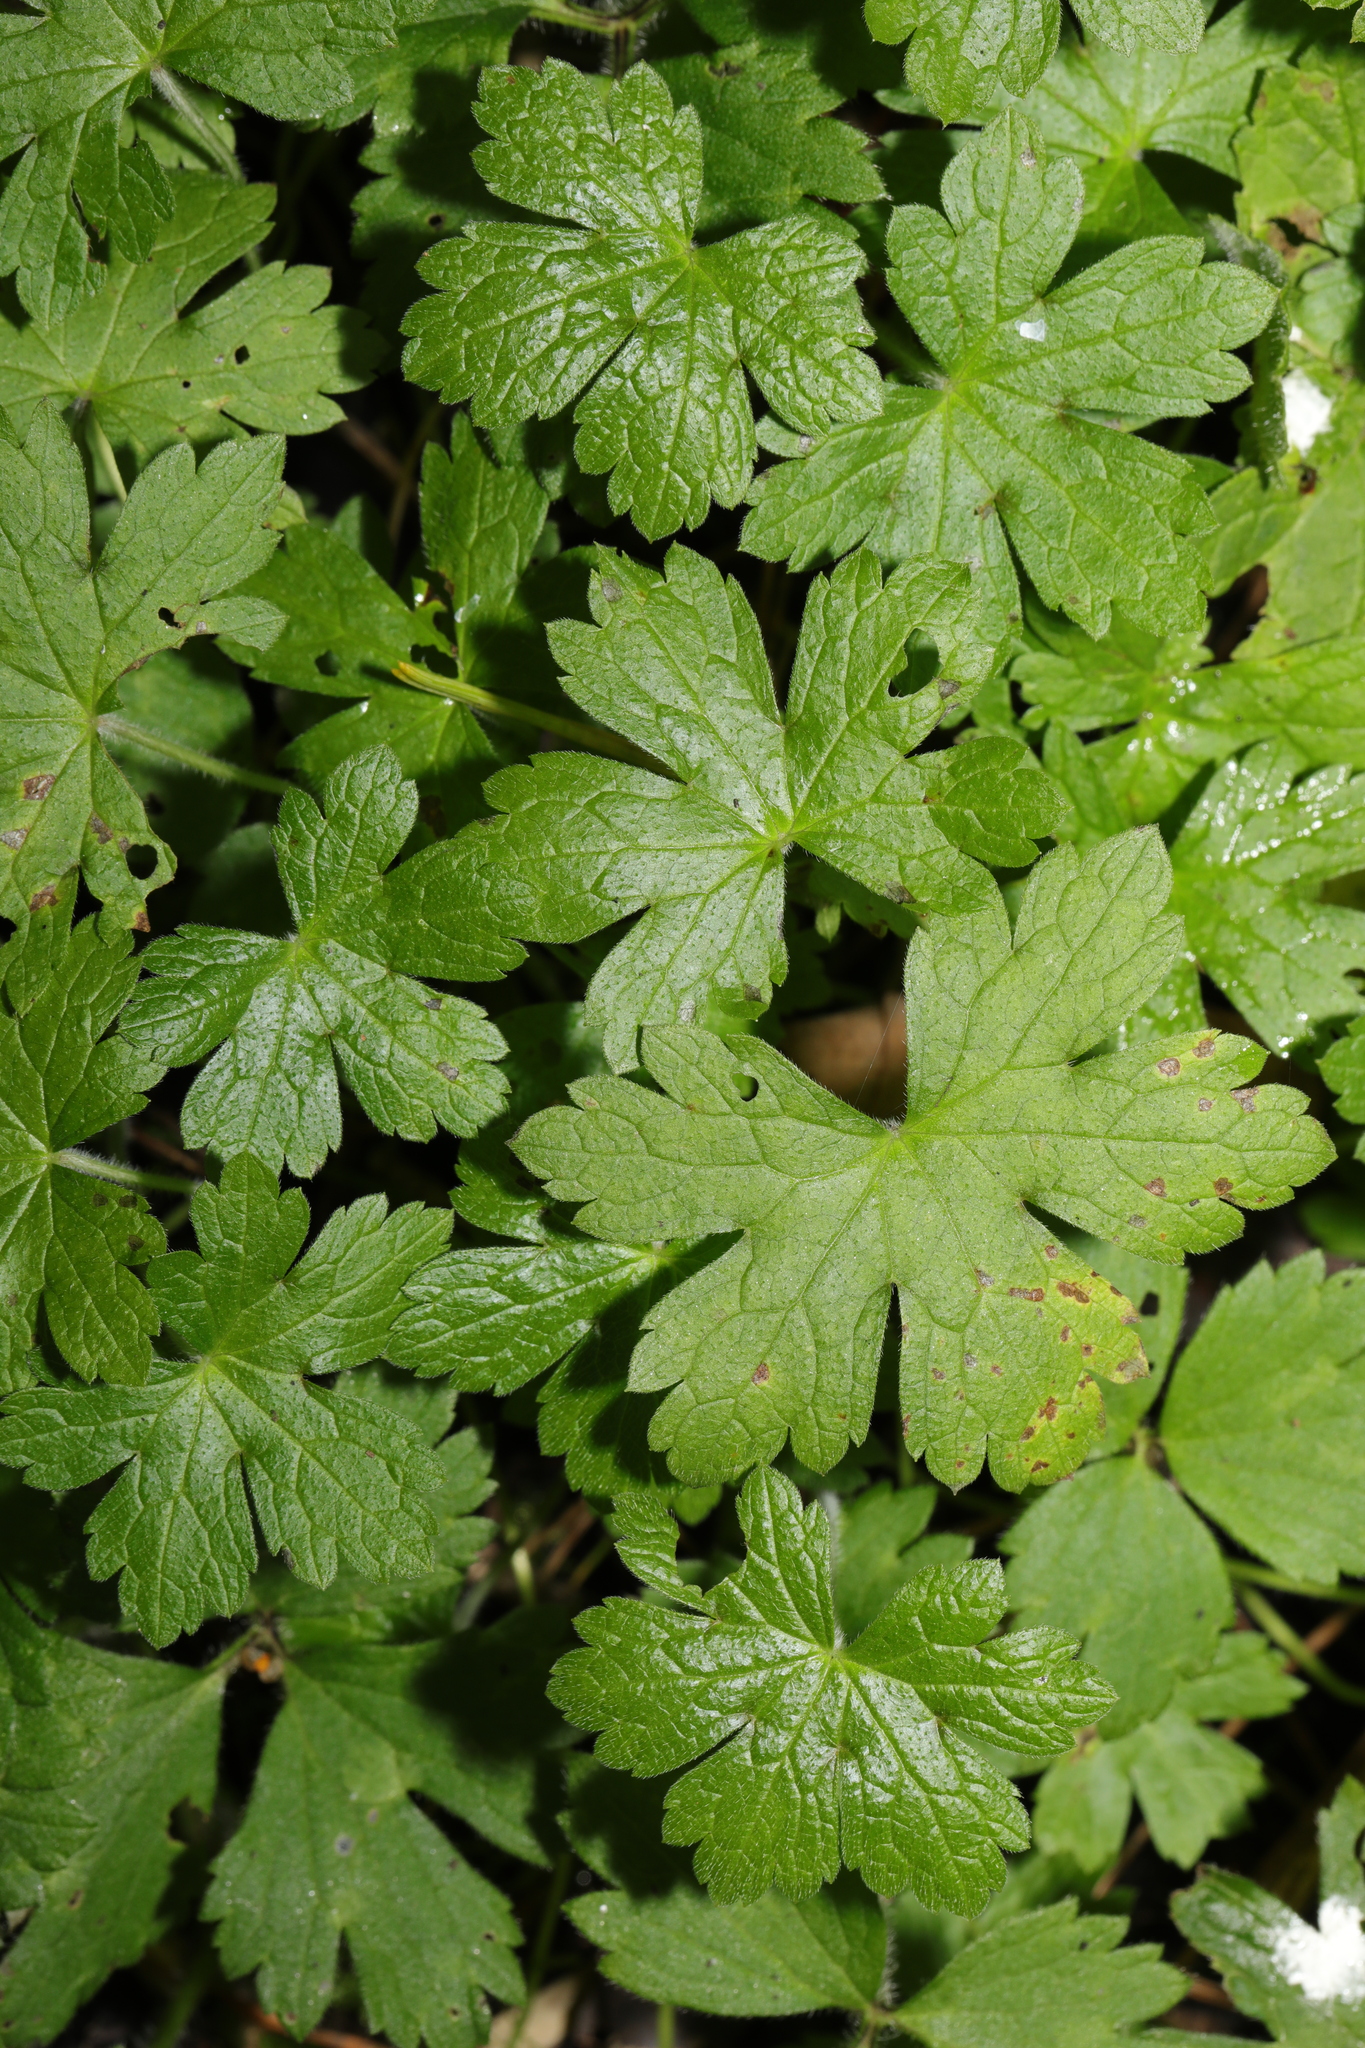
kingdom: Plantae
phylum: Tracheophyta
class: Magnoliopsida
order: Geraniales
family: Geraniaceae
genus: Geranium
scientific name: Geranium oxonianum
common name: Druce's crane's-bill
